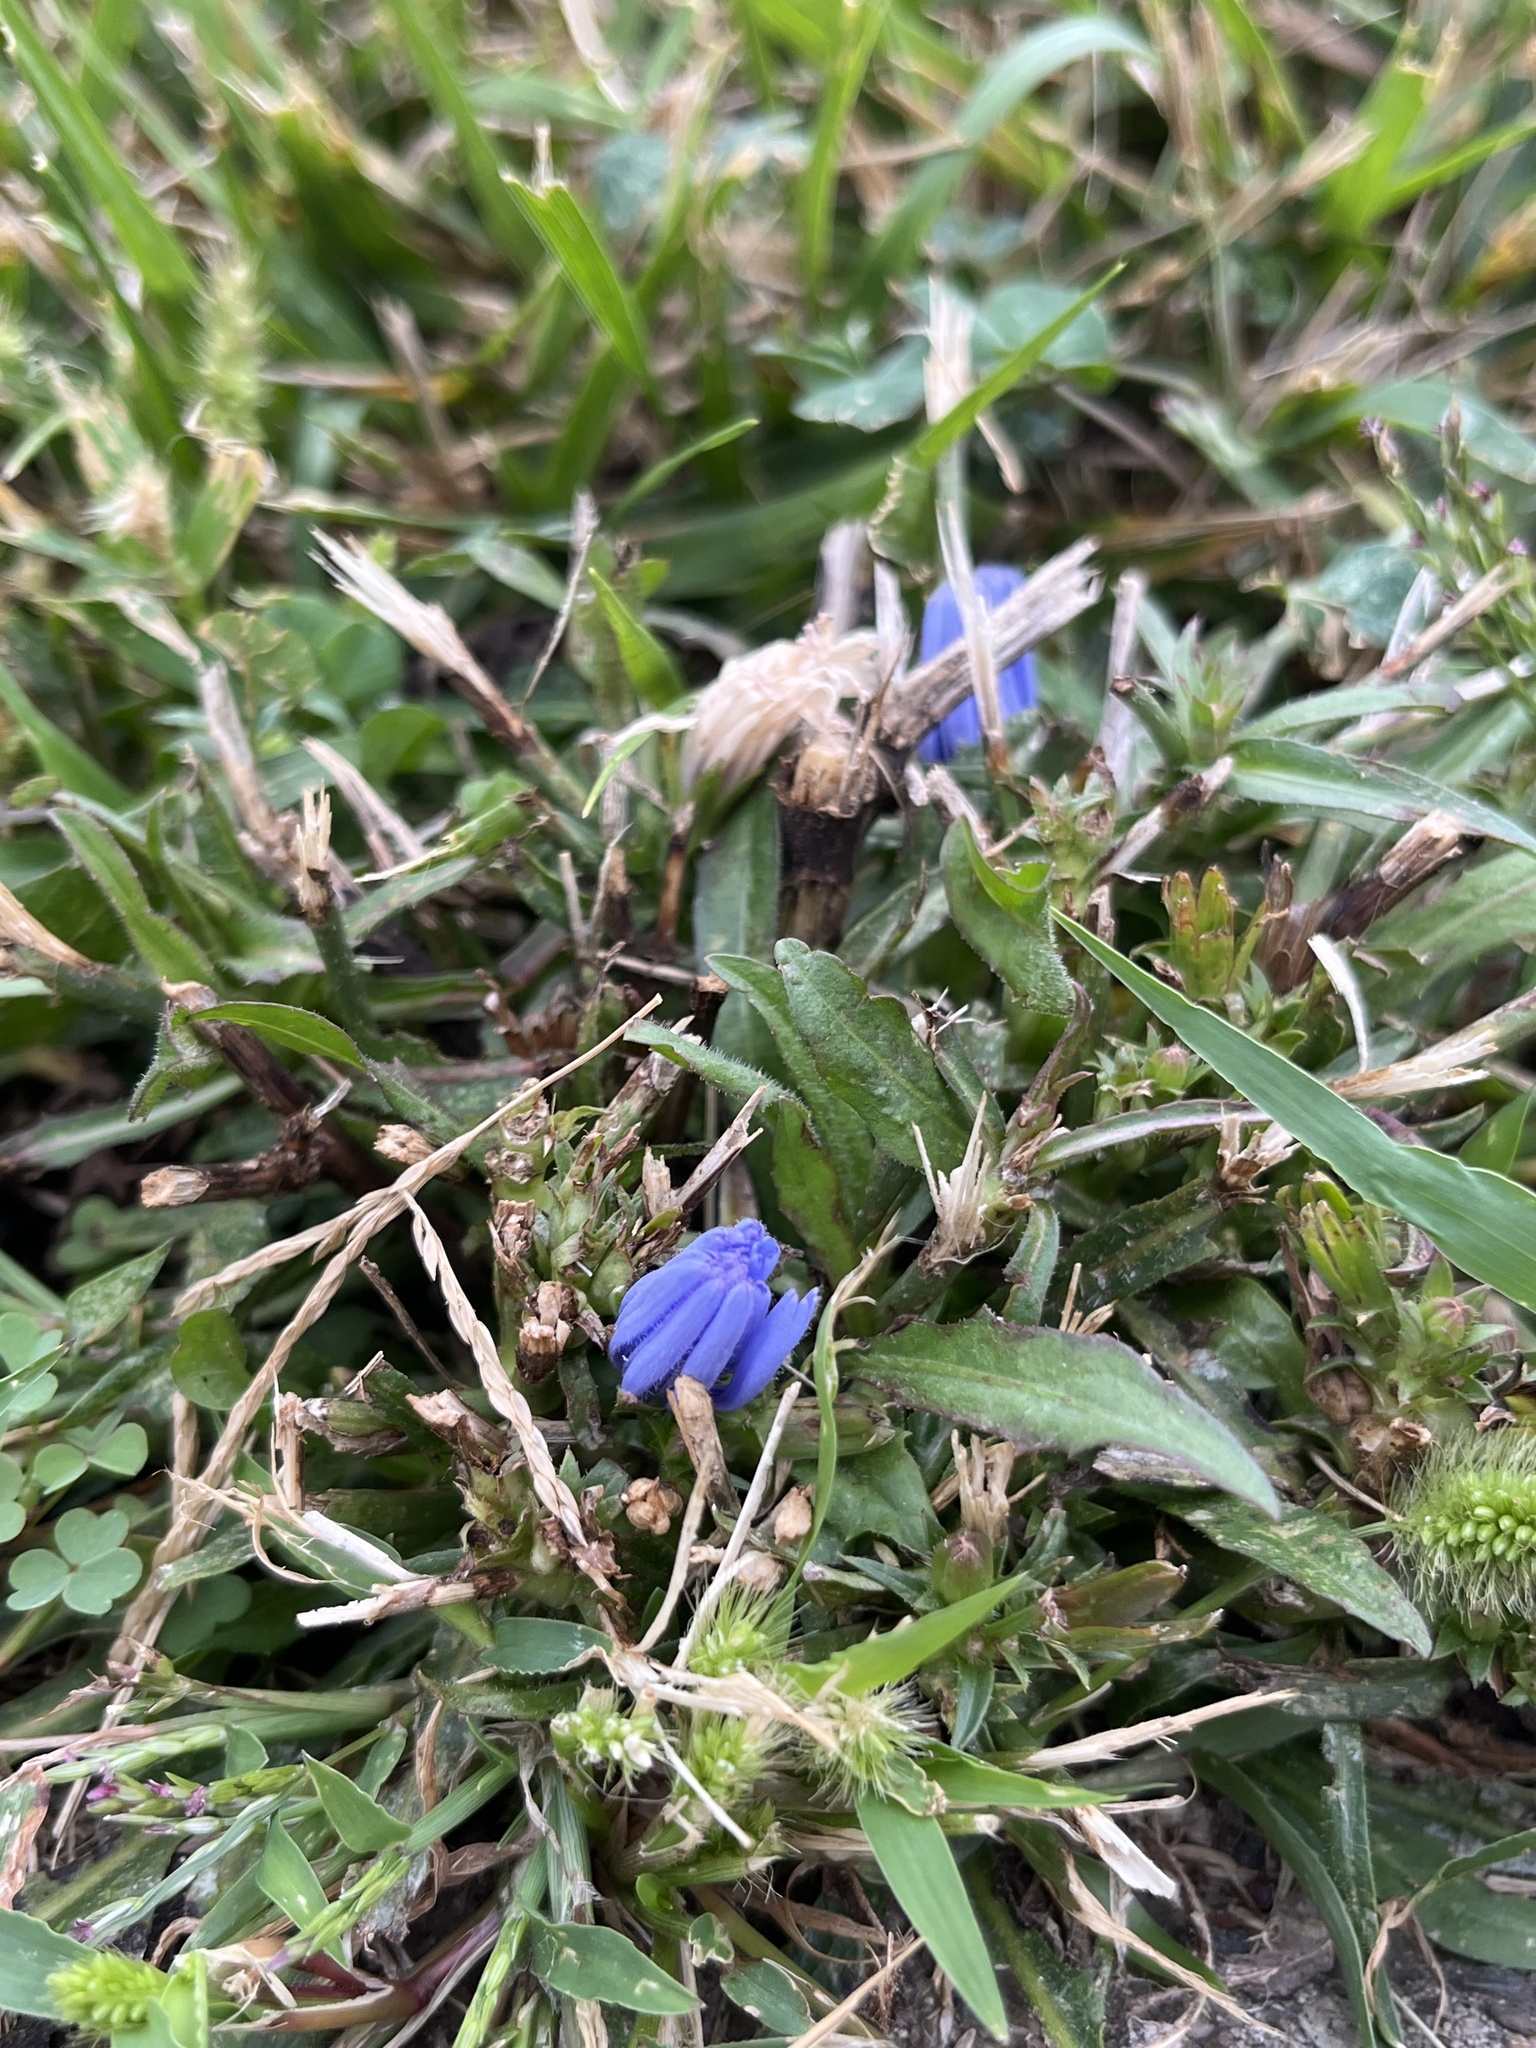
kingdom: Plantae
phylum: Tracheophyta
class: Magnoliopsida
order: Asterales
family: Asteraceae
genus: Cichorium
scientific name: Cichorium intybus
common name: Chicory
